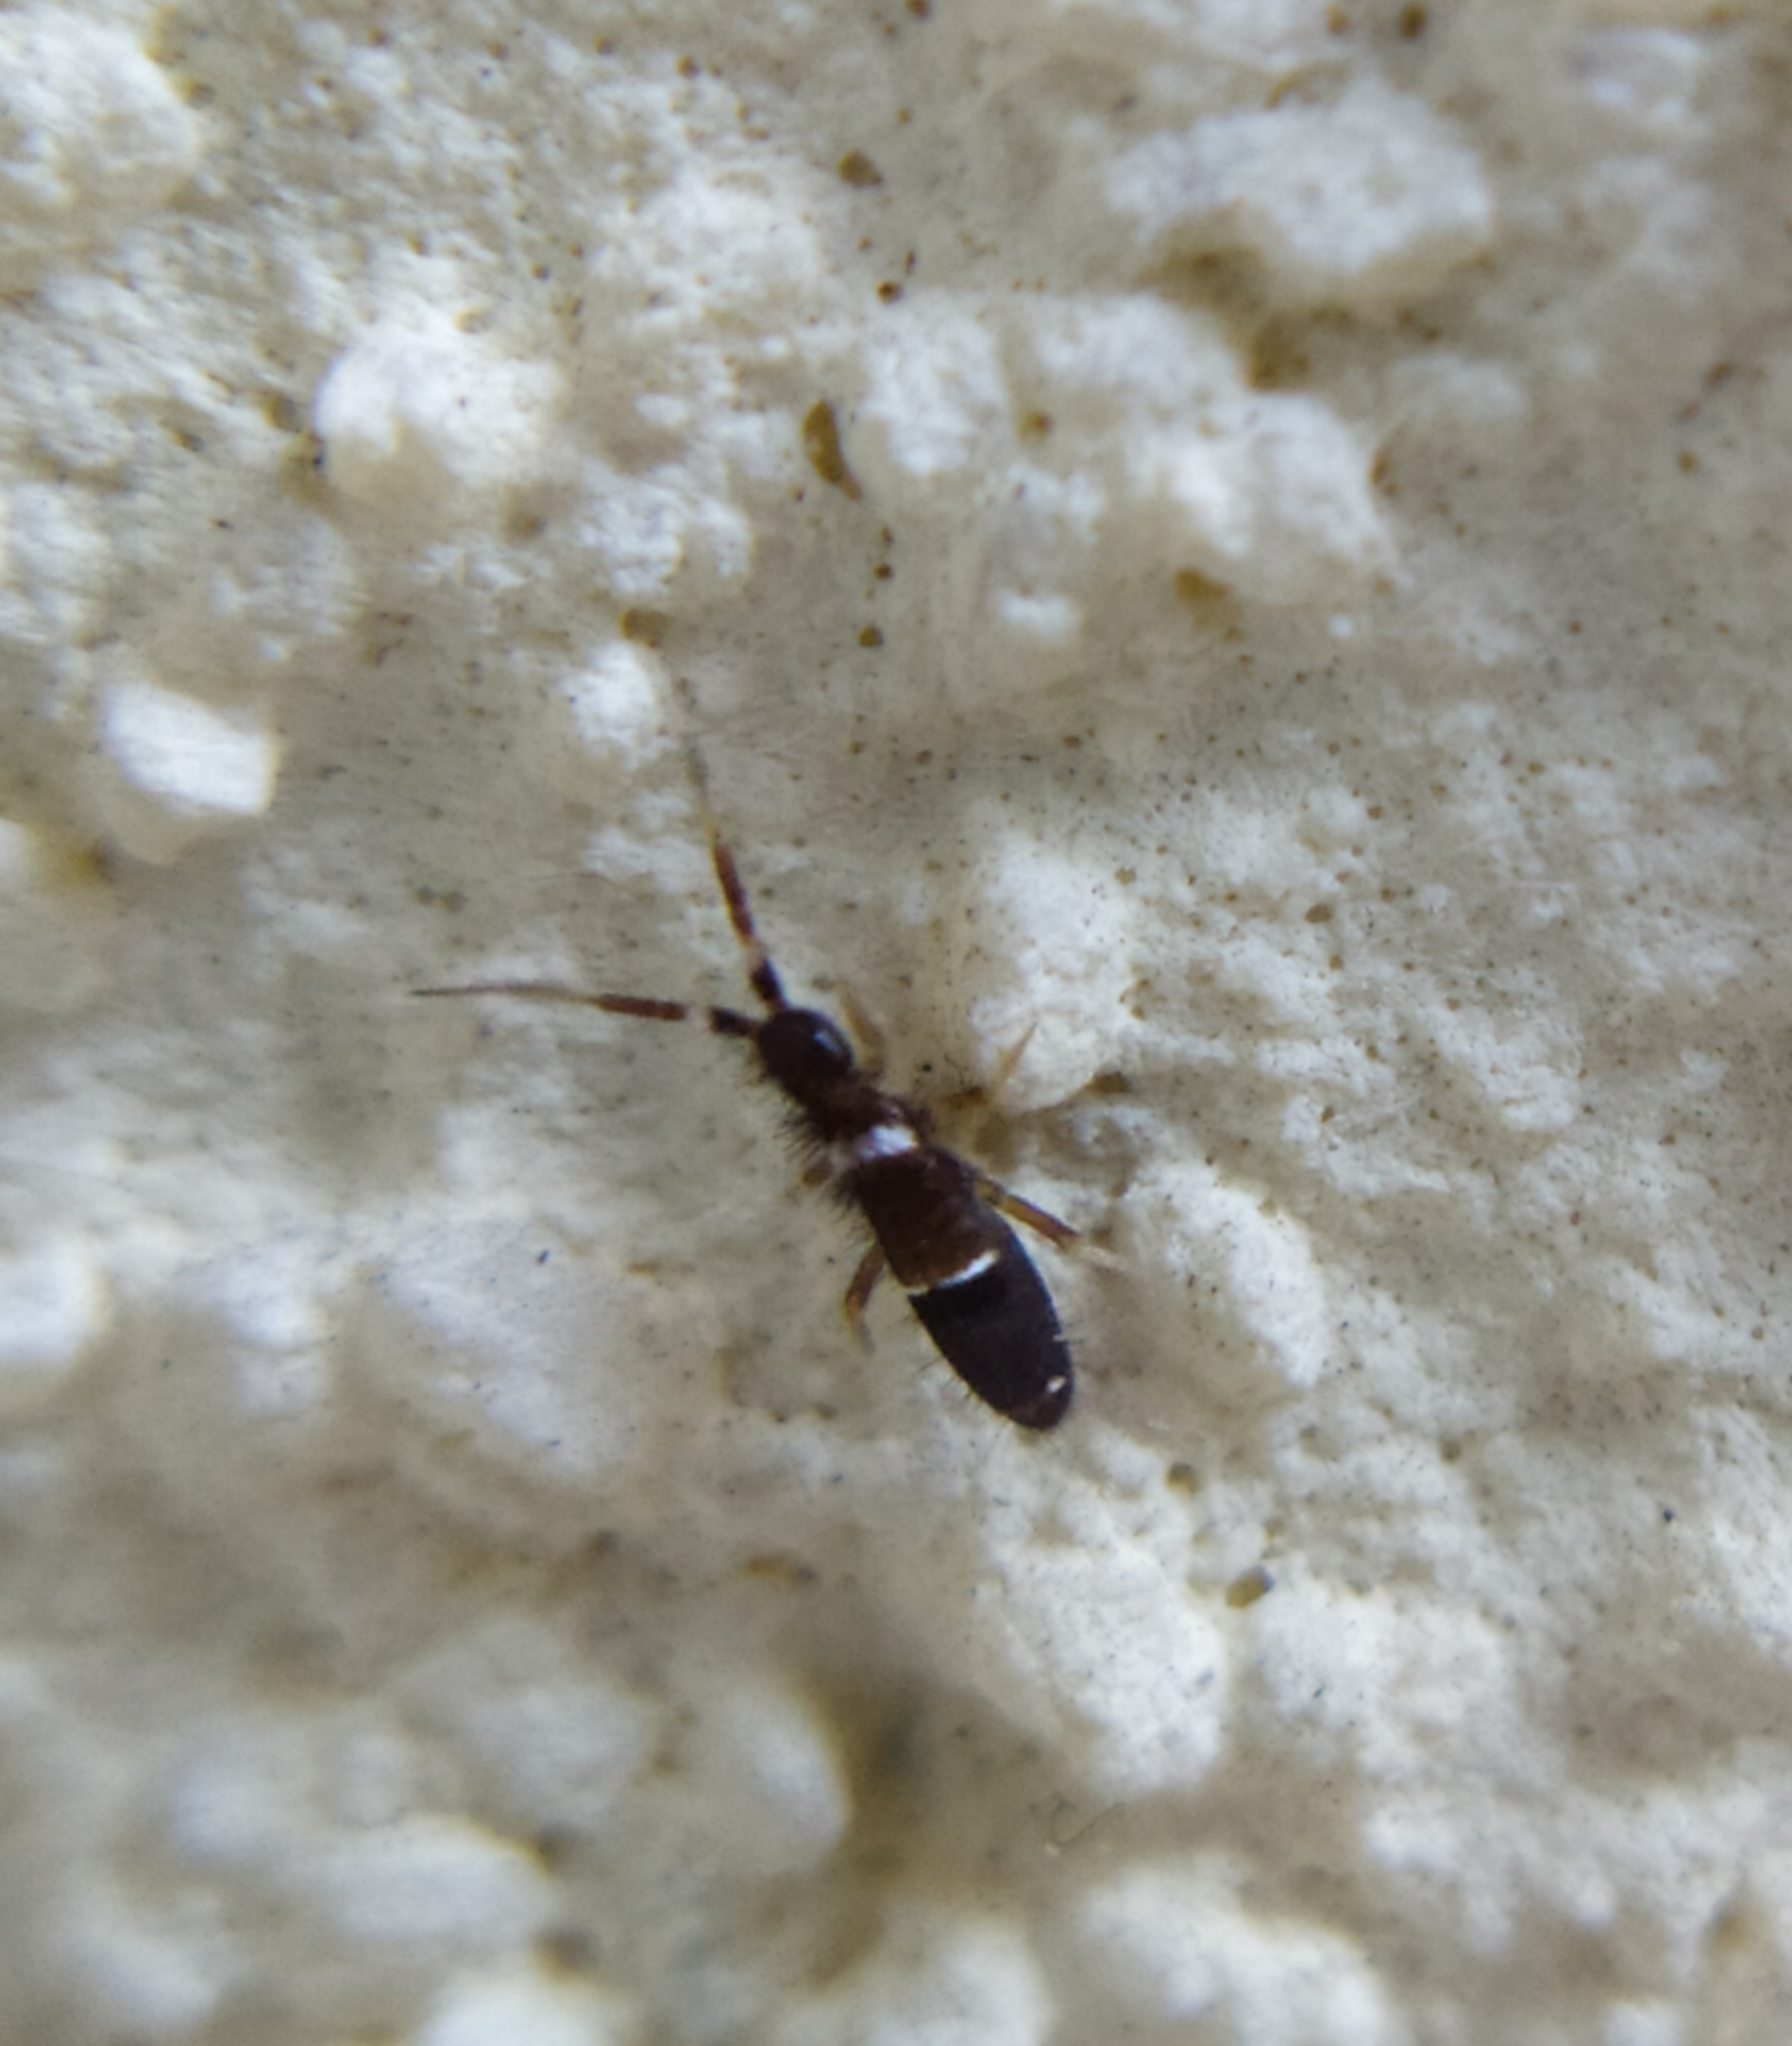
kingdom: Animalia
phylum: Arthropoda
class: Collembola
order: Entomobryomorpha
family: Orchesellidae
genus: Orchesella
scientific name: Orchesella cincta
